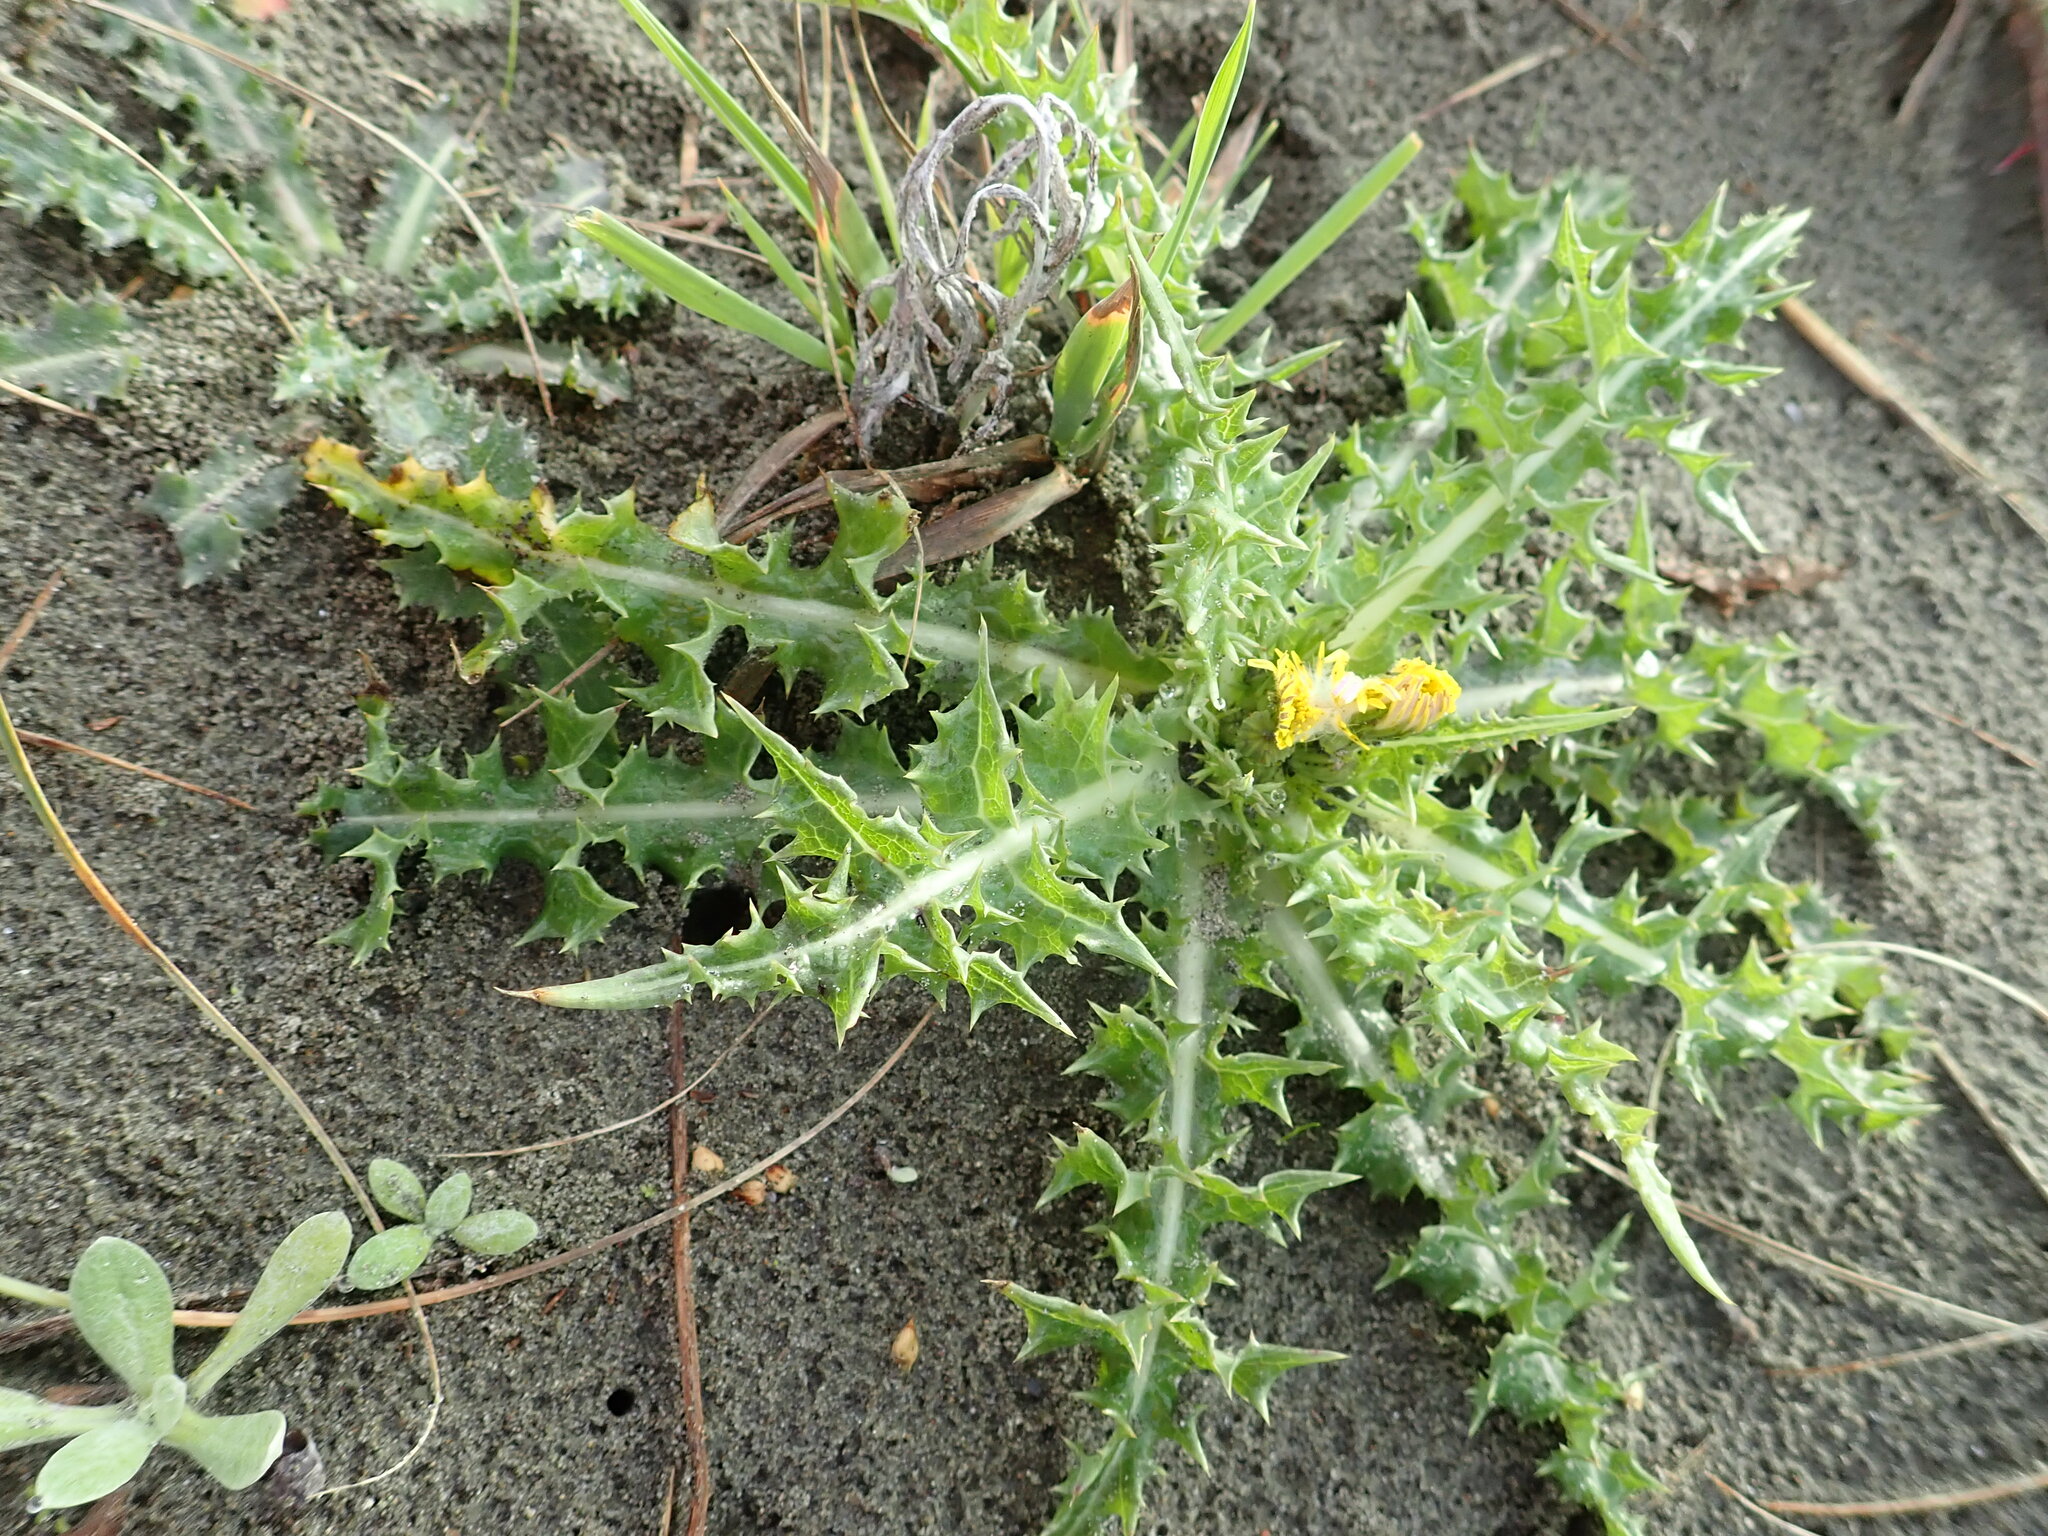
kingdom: Plantae
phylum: Tracheophyta
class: Magnoliopsida
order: Asterales
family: Asteraceae
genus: Sonchus
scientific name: Sonchus asper
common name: Prickly sow-thistle
